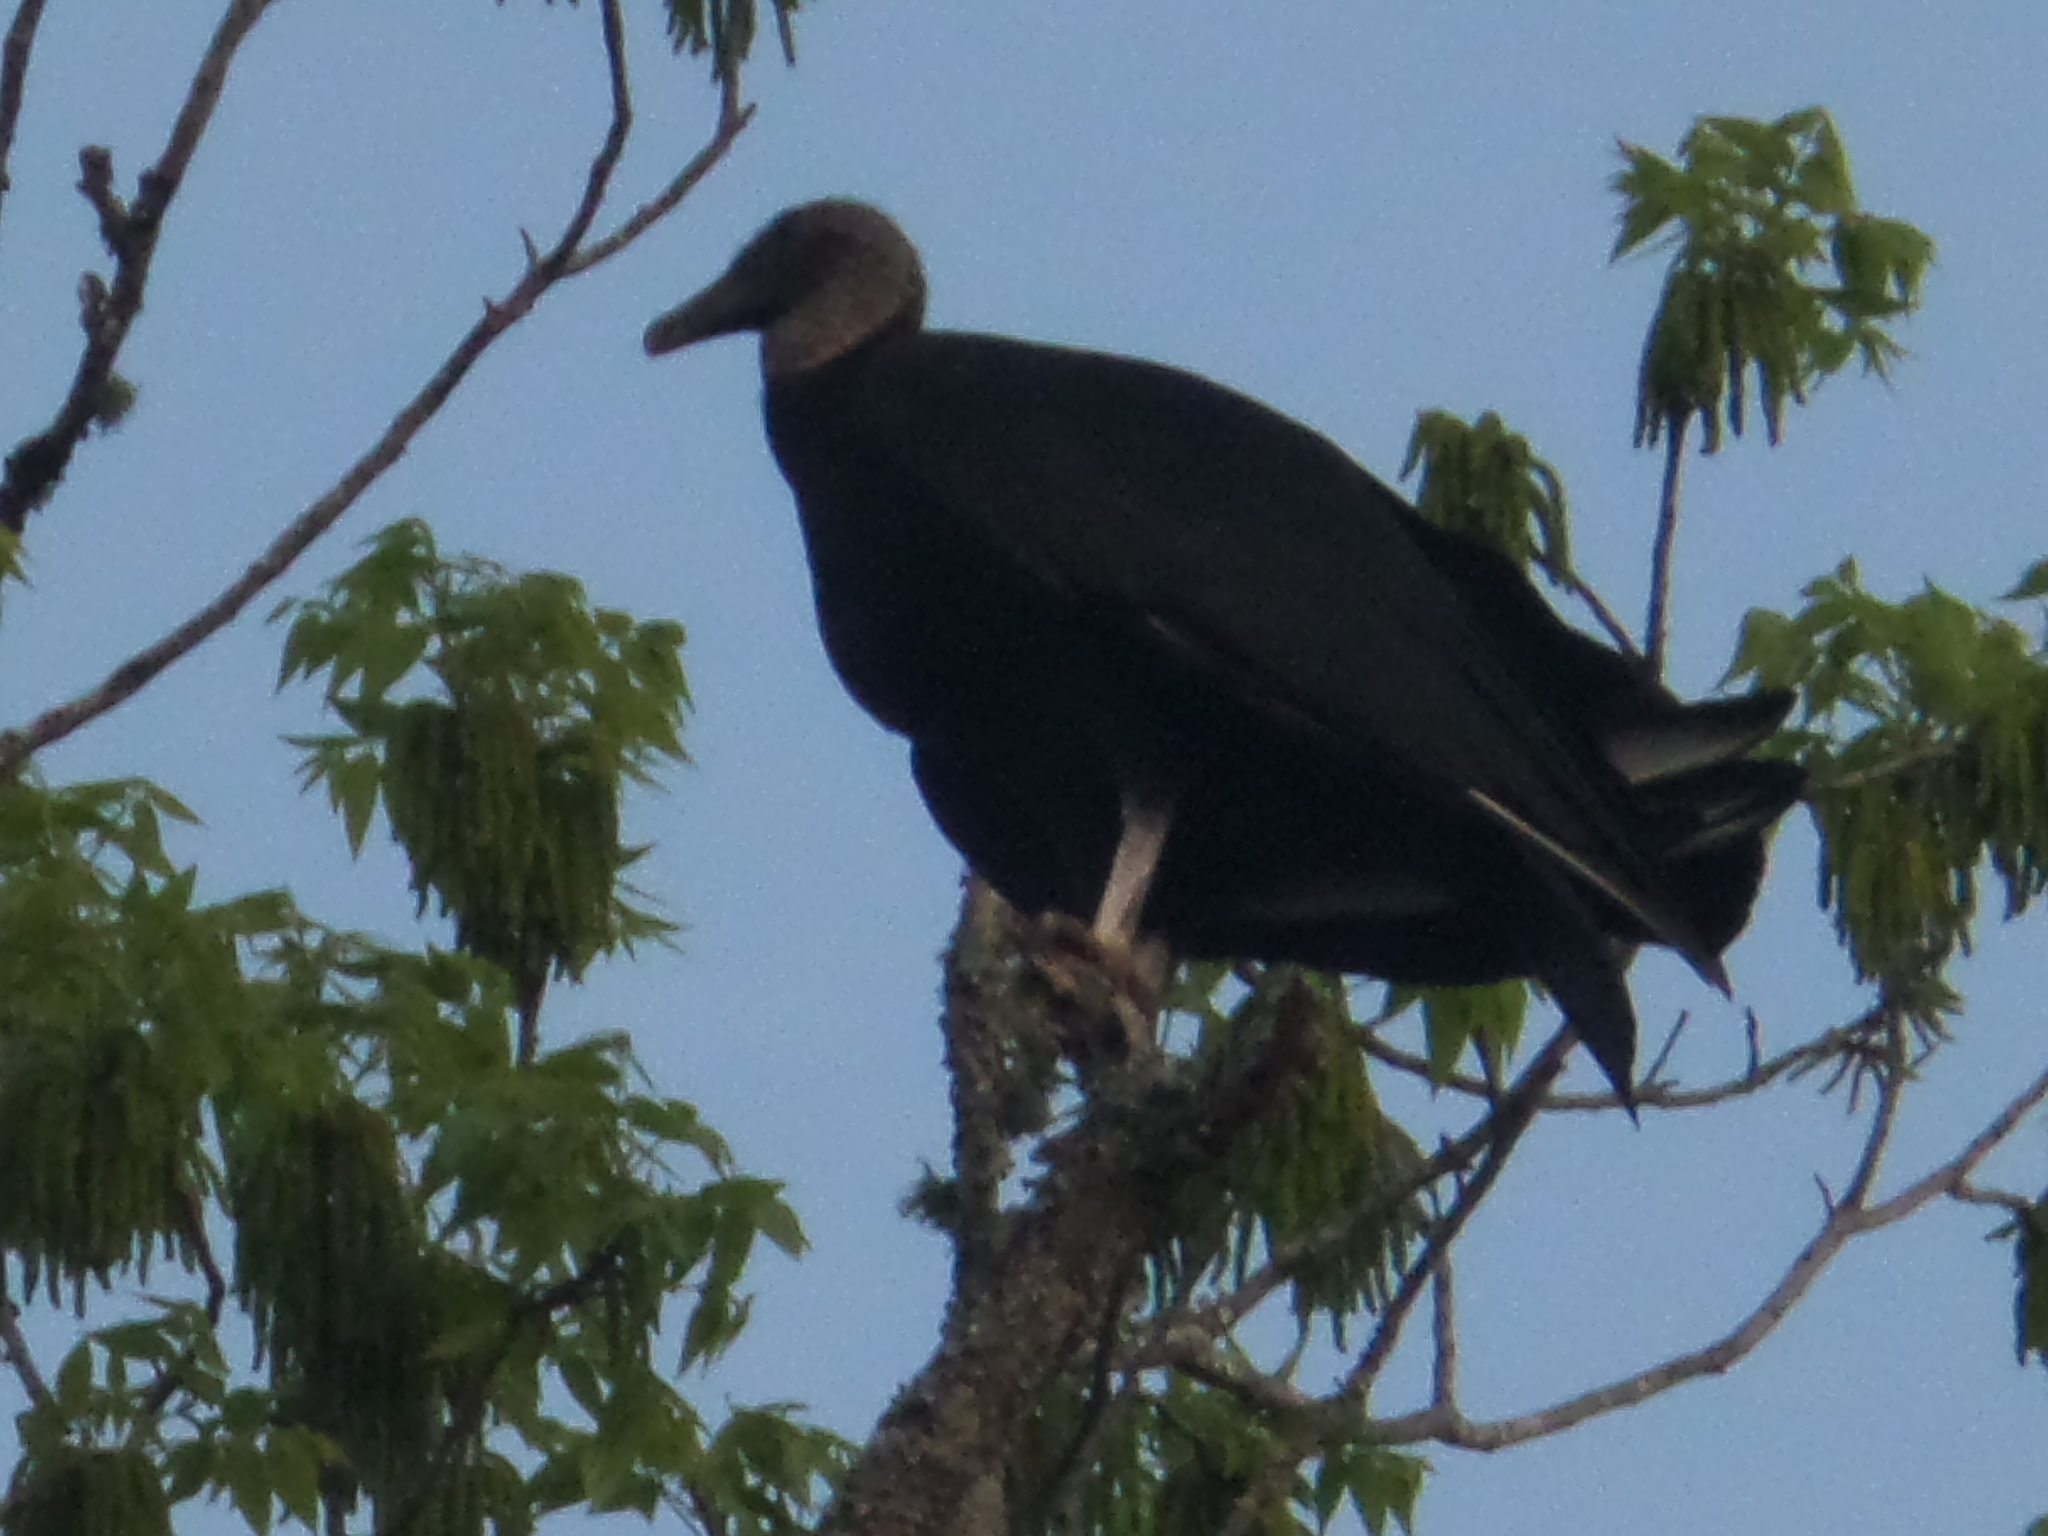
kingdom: Animalia
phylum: Chordata
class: Aves
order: Accipitriformes
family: Cathartidae
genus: Coragyps
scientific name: Coragyps atratus
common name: Black vulture
